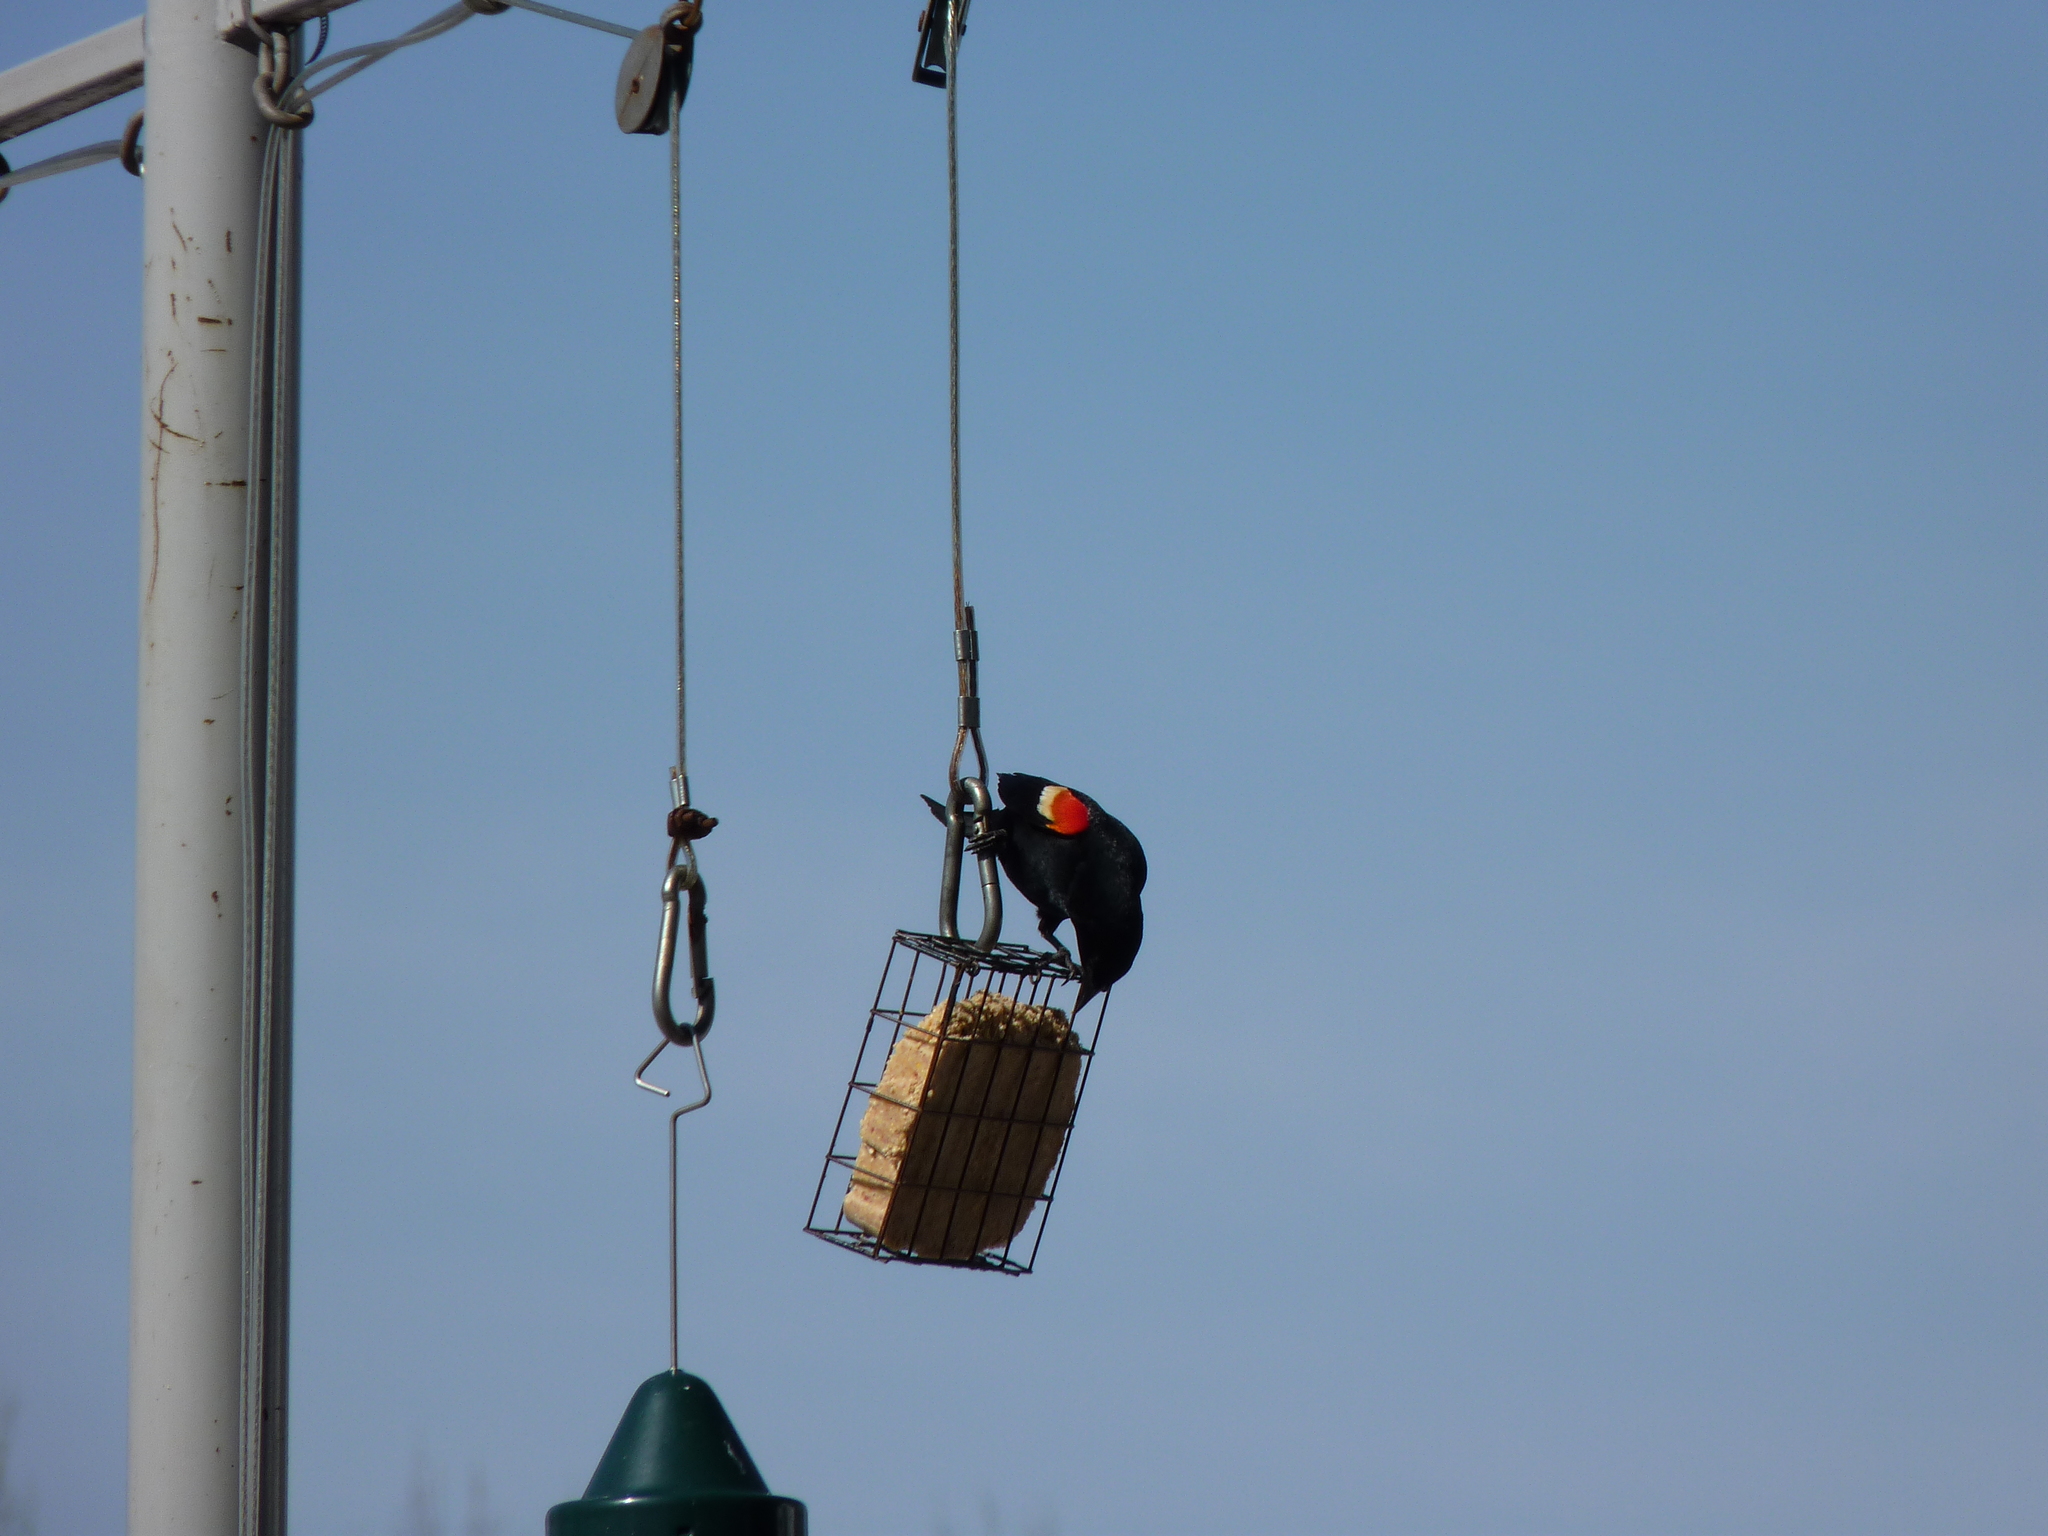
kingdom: Animalia
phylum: Chordata
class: Aves
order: Passeriformes
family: Icteridae
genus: Agelaius
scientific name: Agelaius phoeniceus
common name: Red-winged blackbird
